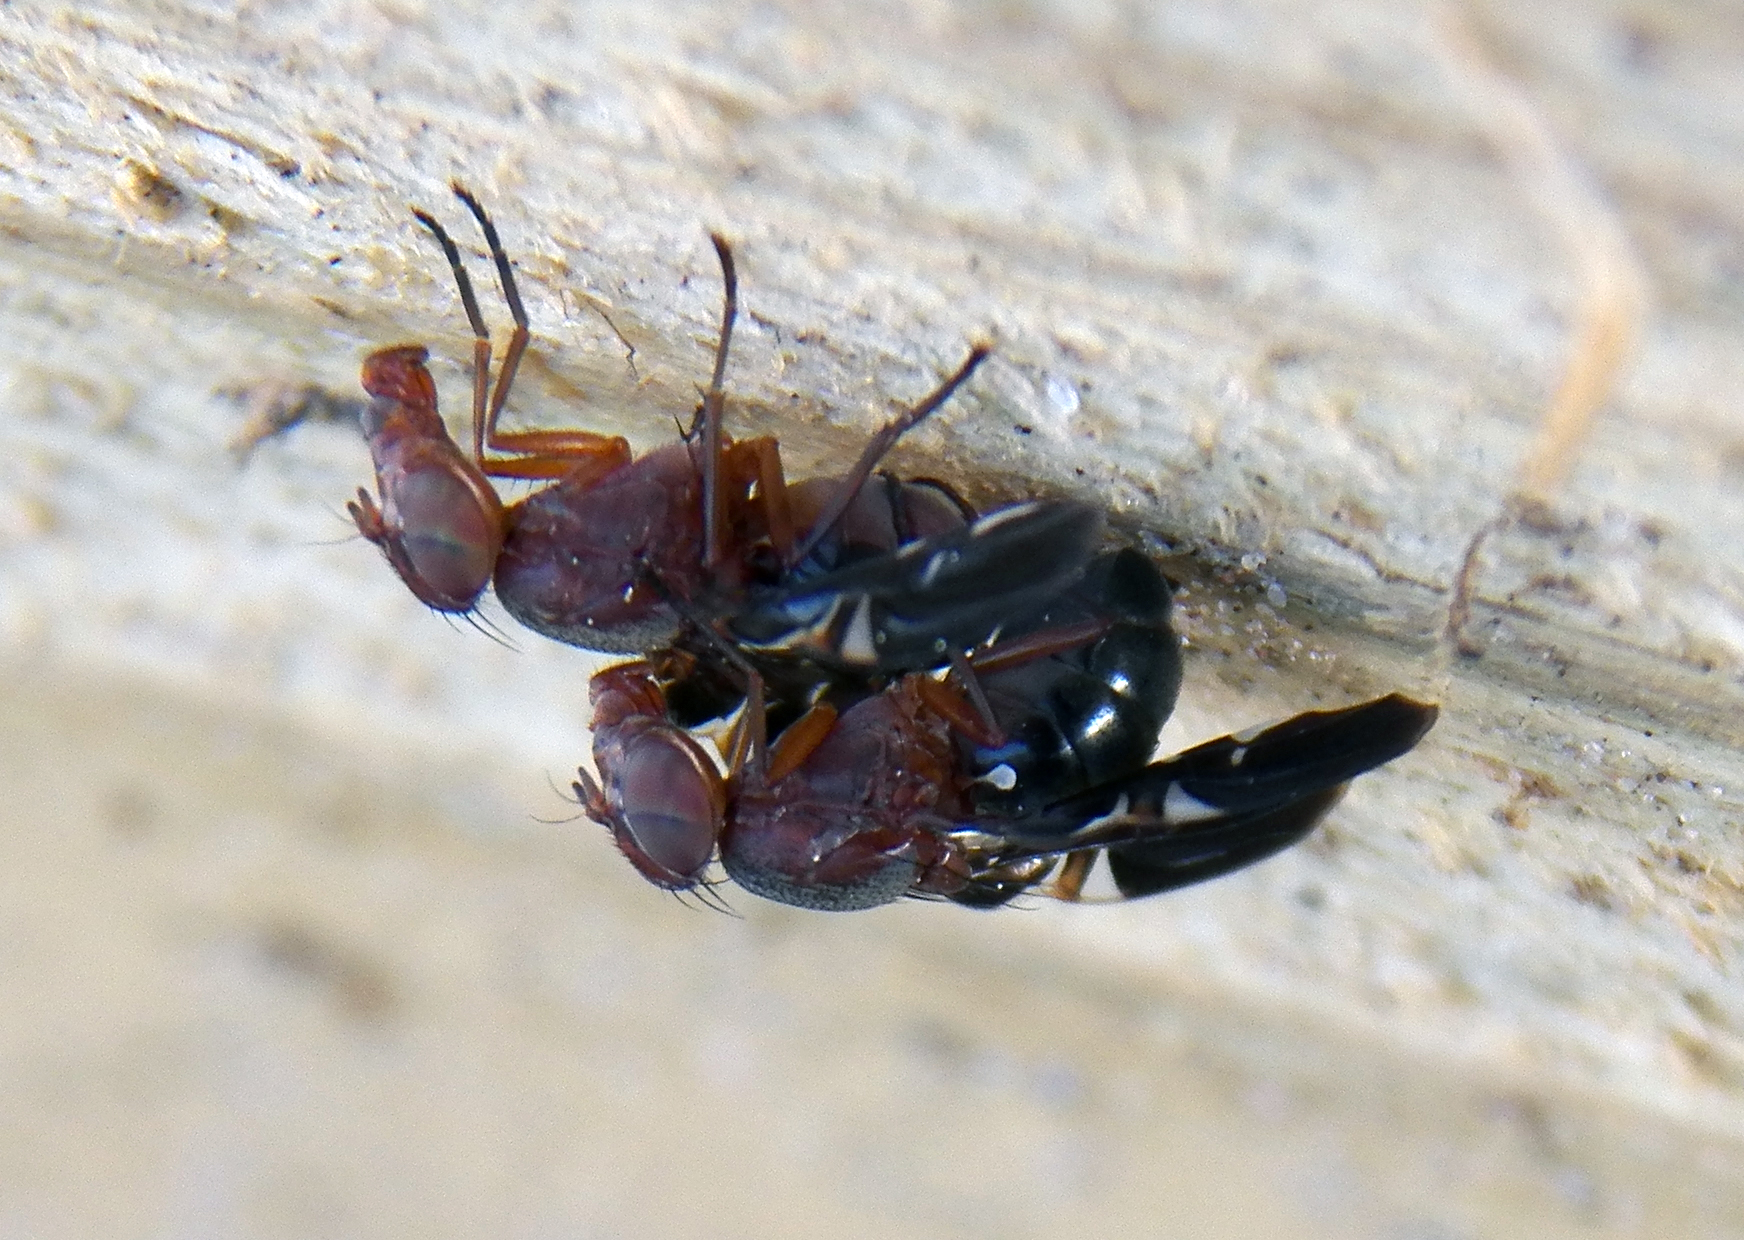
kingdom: Animalia
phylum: Arthropoda
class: Insecta
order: Diptera
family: Ulidiidae
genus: Delphinia
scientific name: Delphinia picta
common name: Common picture-winged fly
